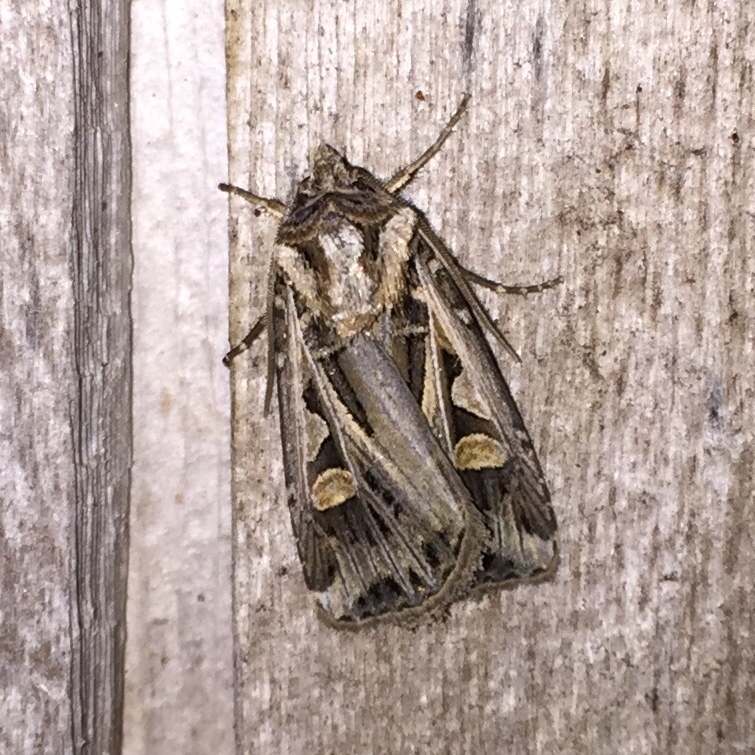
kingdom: Animalia
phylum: Arthropoda
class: Insecta
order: Lepidoptera
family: Noctuidae
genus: Feltia
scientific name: Feltia jaculifera
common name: Dingy cutworm moth
